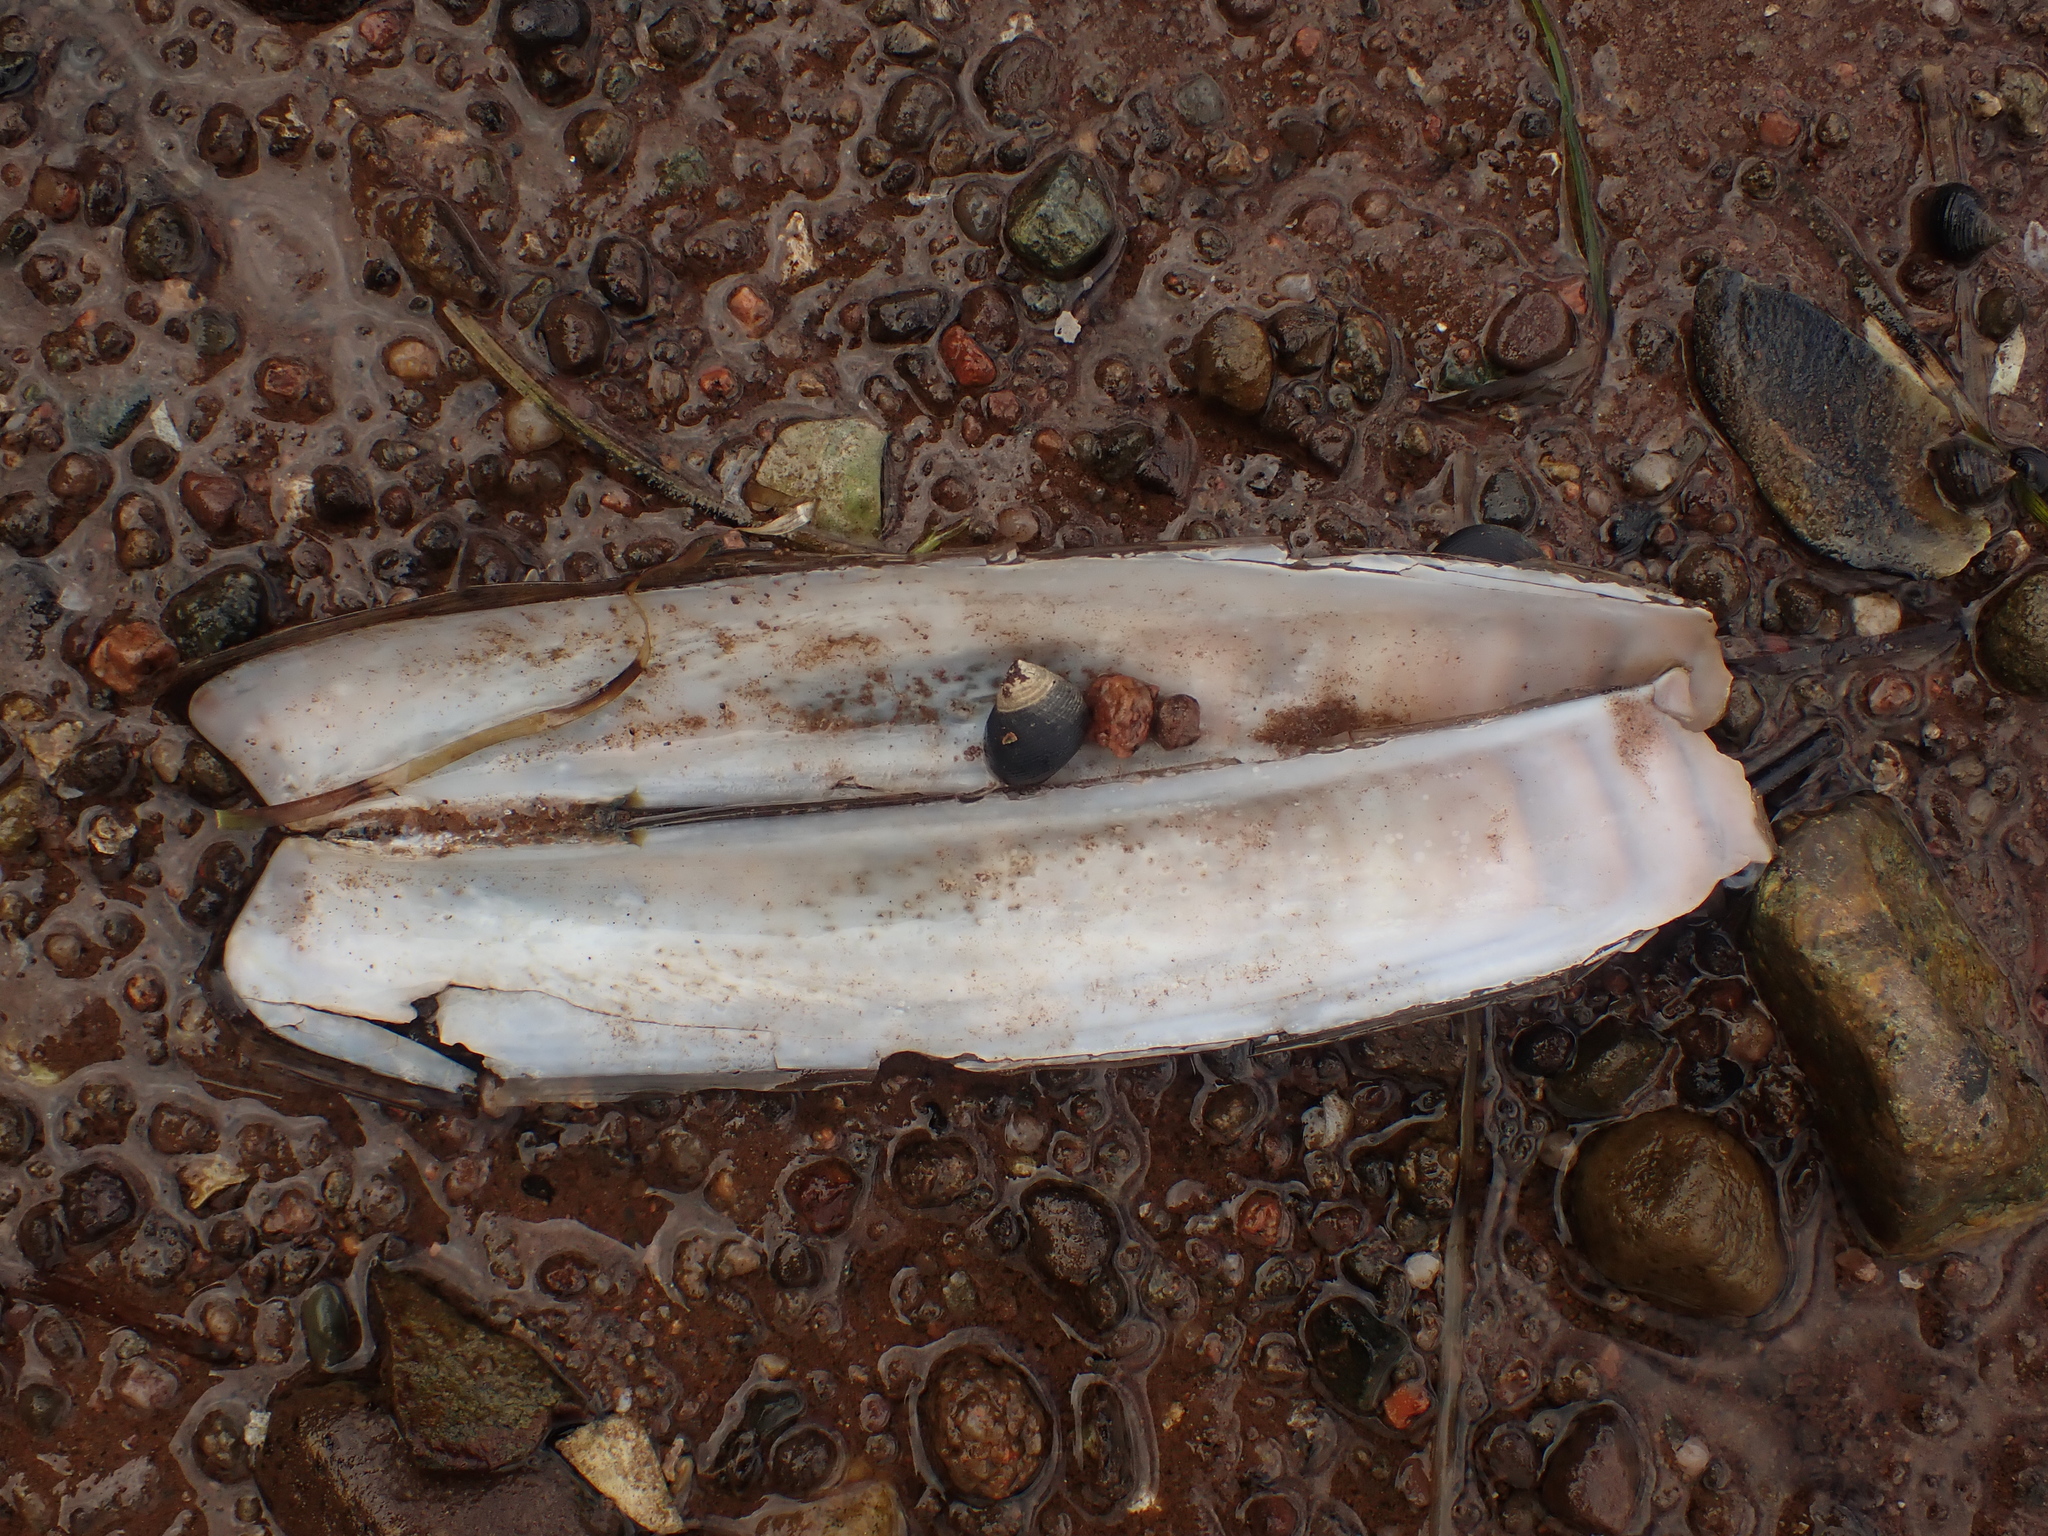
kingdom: Animalia
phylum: Mollusca
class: Bivalvia
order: Adapedonta
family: Pharidae
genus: Ensis
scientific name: Ensis leei
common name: American jack knife clam
